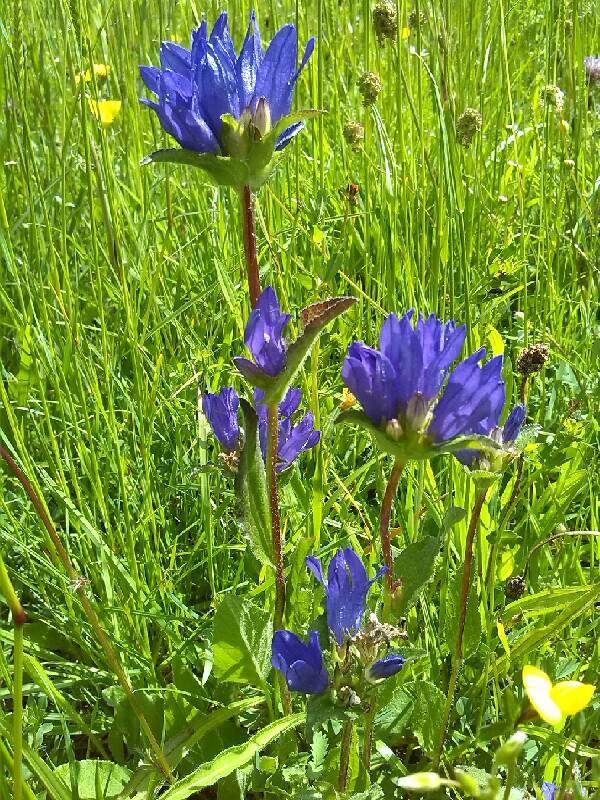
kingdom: Plantae
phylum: Tracheophyta
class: Magnoliopsida
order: Asterales
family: Campanulaceae
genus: Campanula
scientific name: Campanula glomerata
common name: Clustered bellflower
